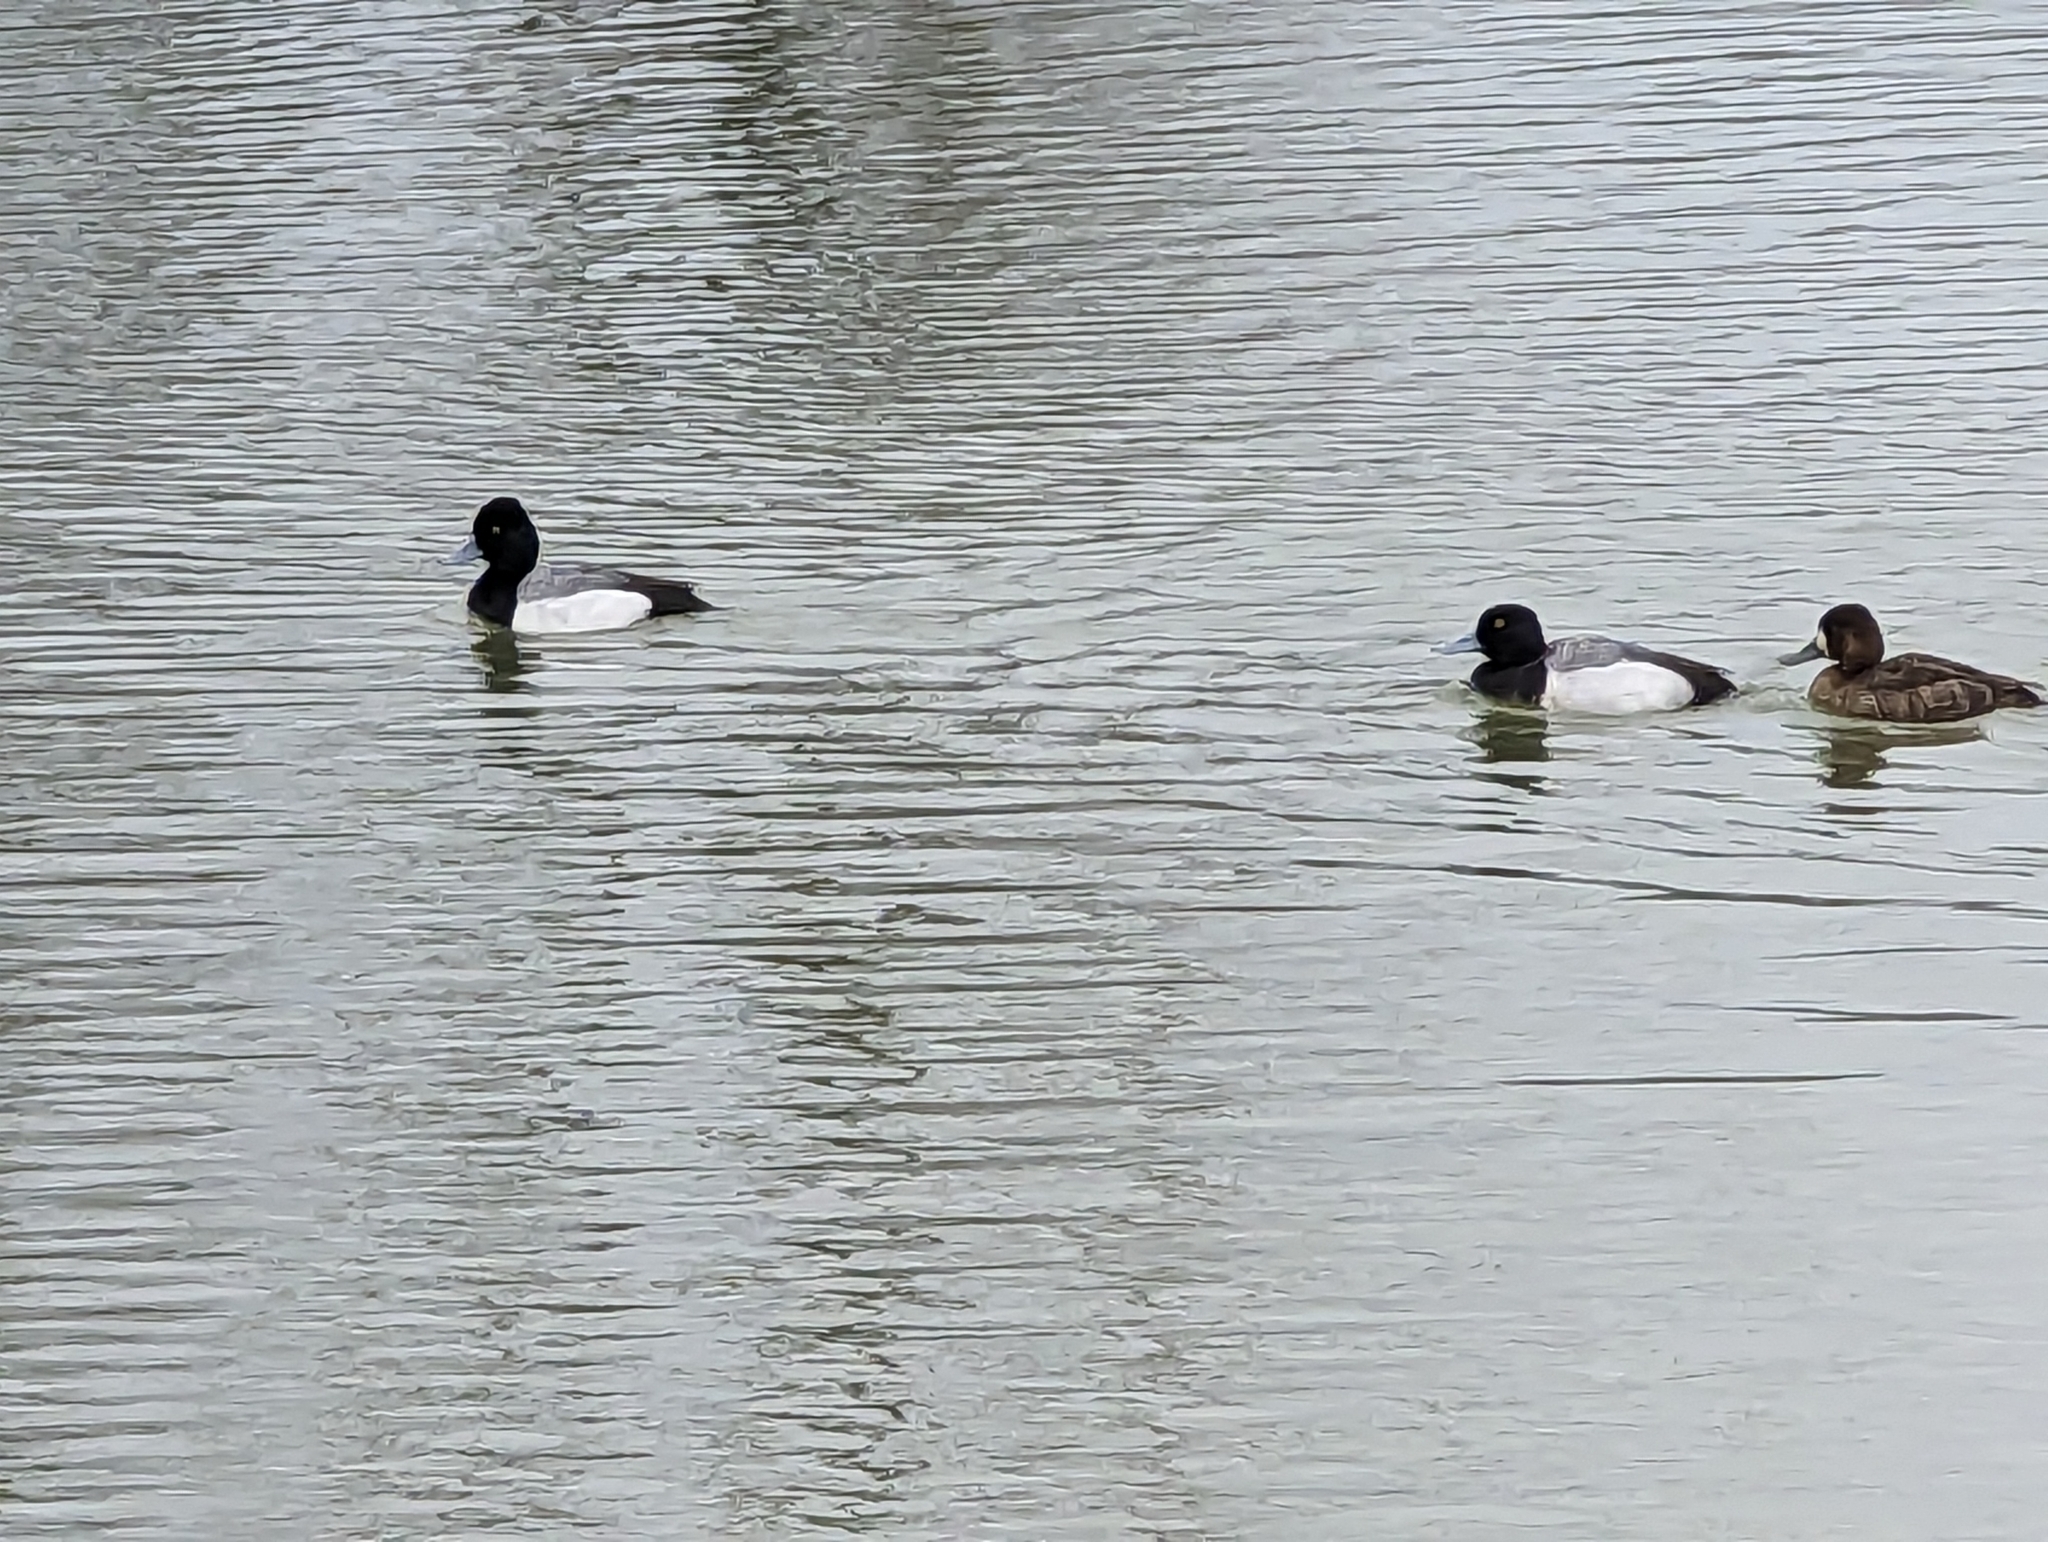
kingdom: Animalia
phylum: Chordata
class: Aves
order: Anseriformes
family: Anatidae
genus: Aythya
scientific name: Aythya affinis
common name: Lesser scaup
